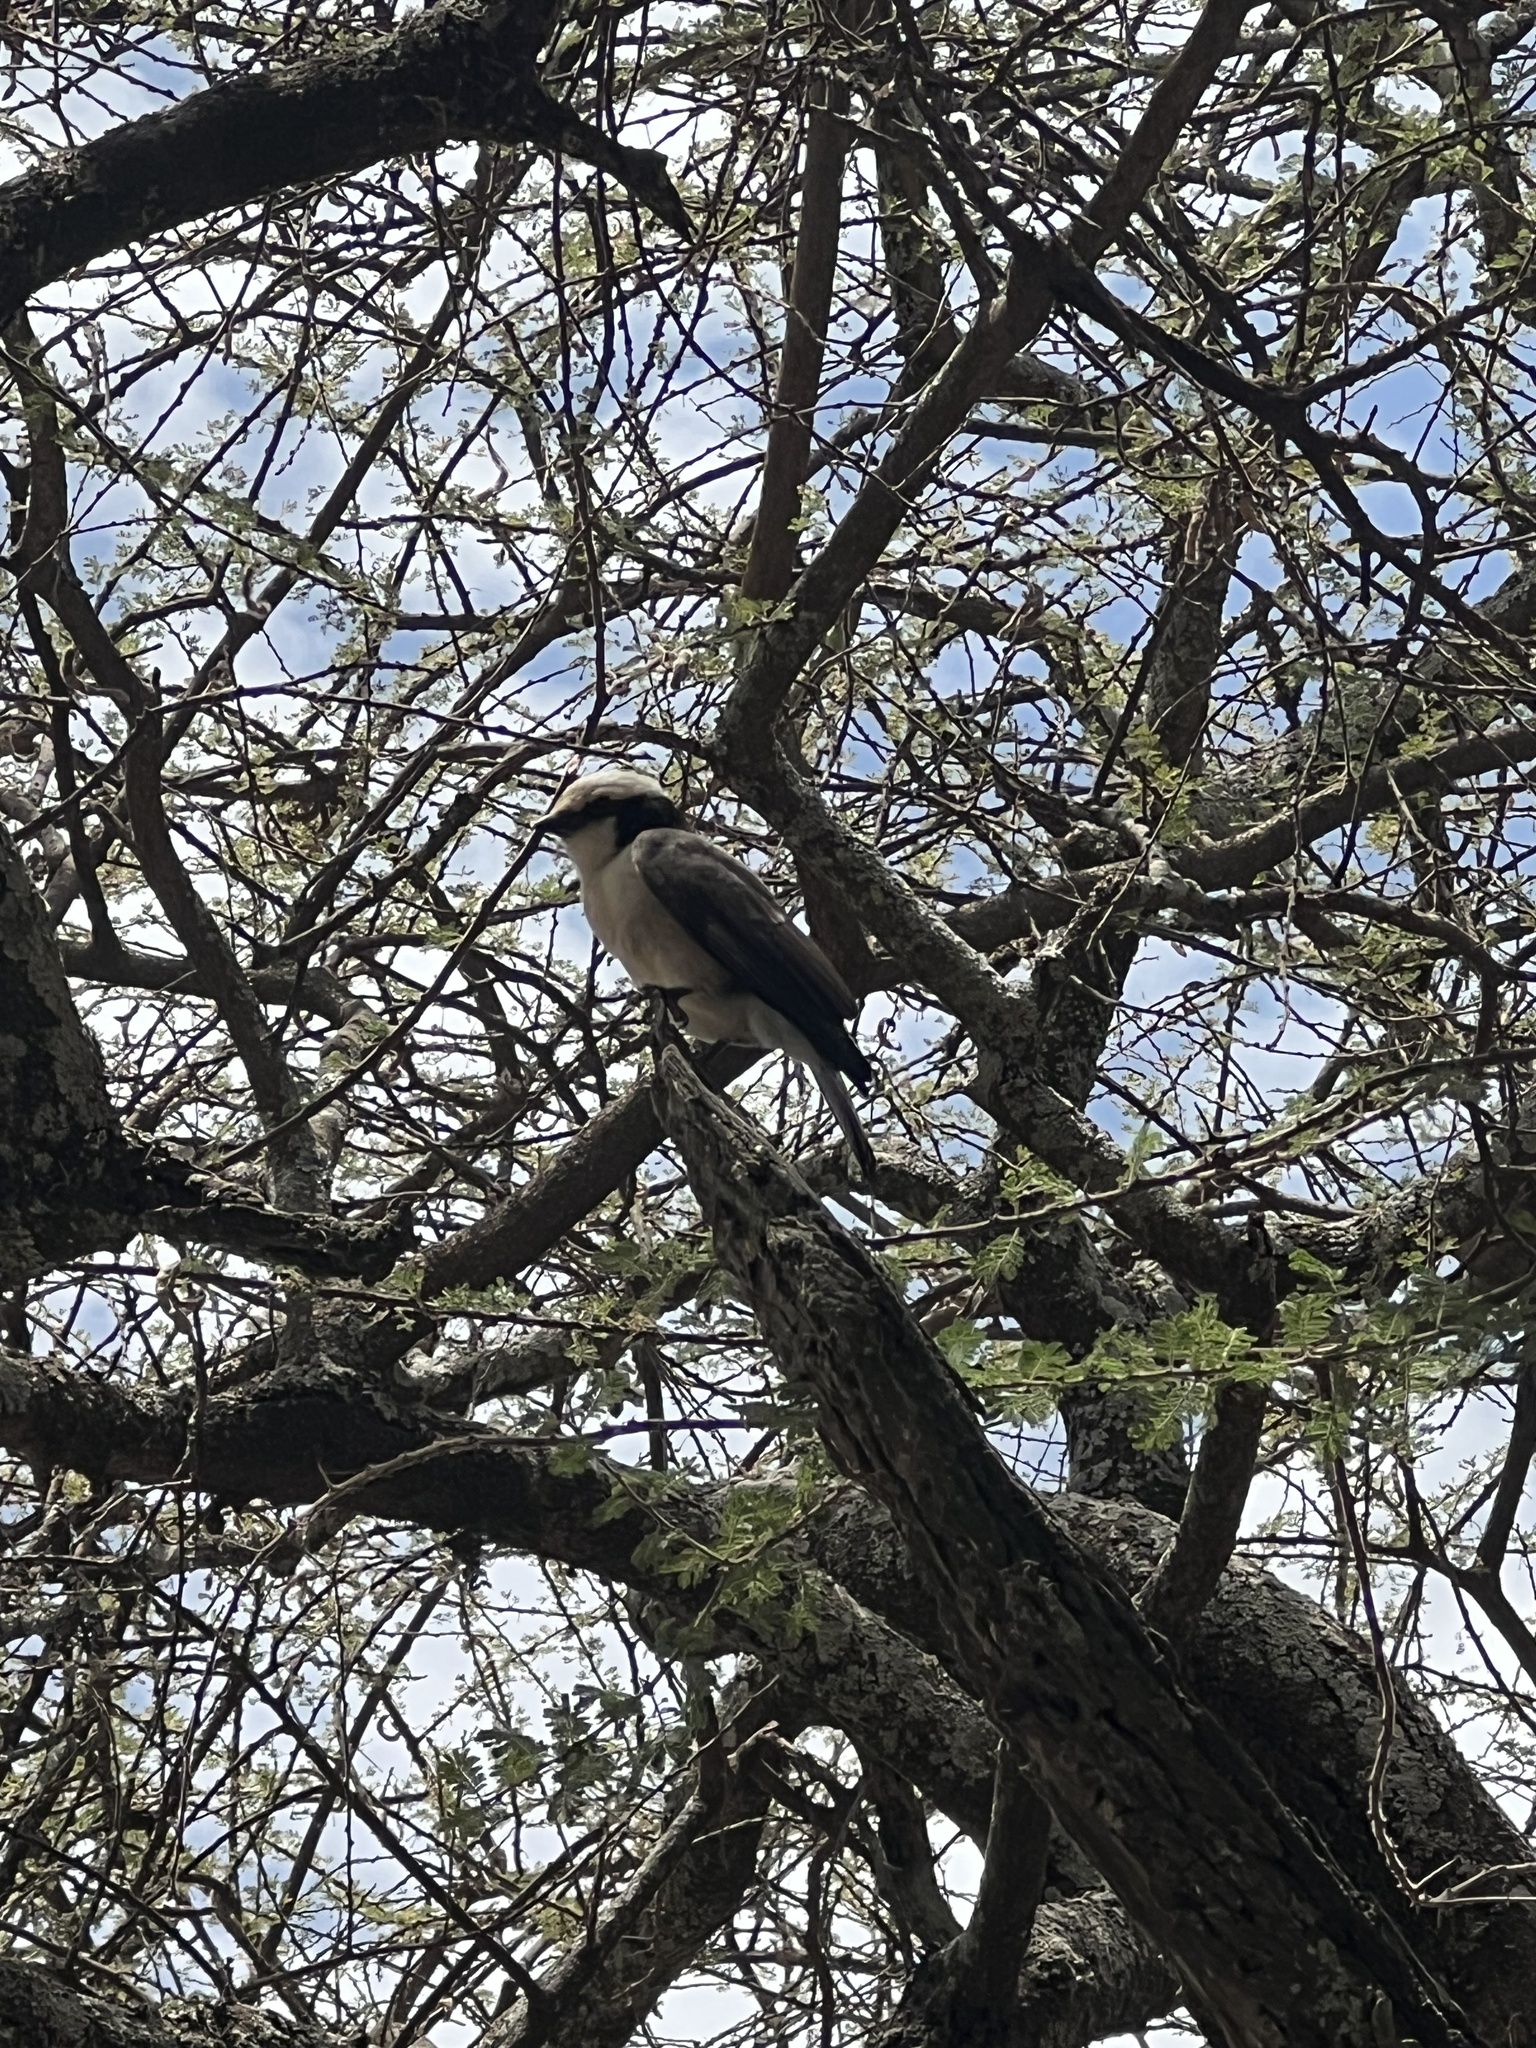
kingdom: Animalia
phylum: Chordata
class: Aves
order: Passeriformes
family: Laniidae
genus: Eurocephalus
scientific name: Eurocephalus ruppelli
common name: Northern white-crowned shrike
